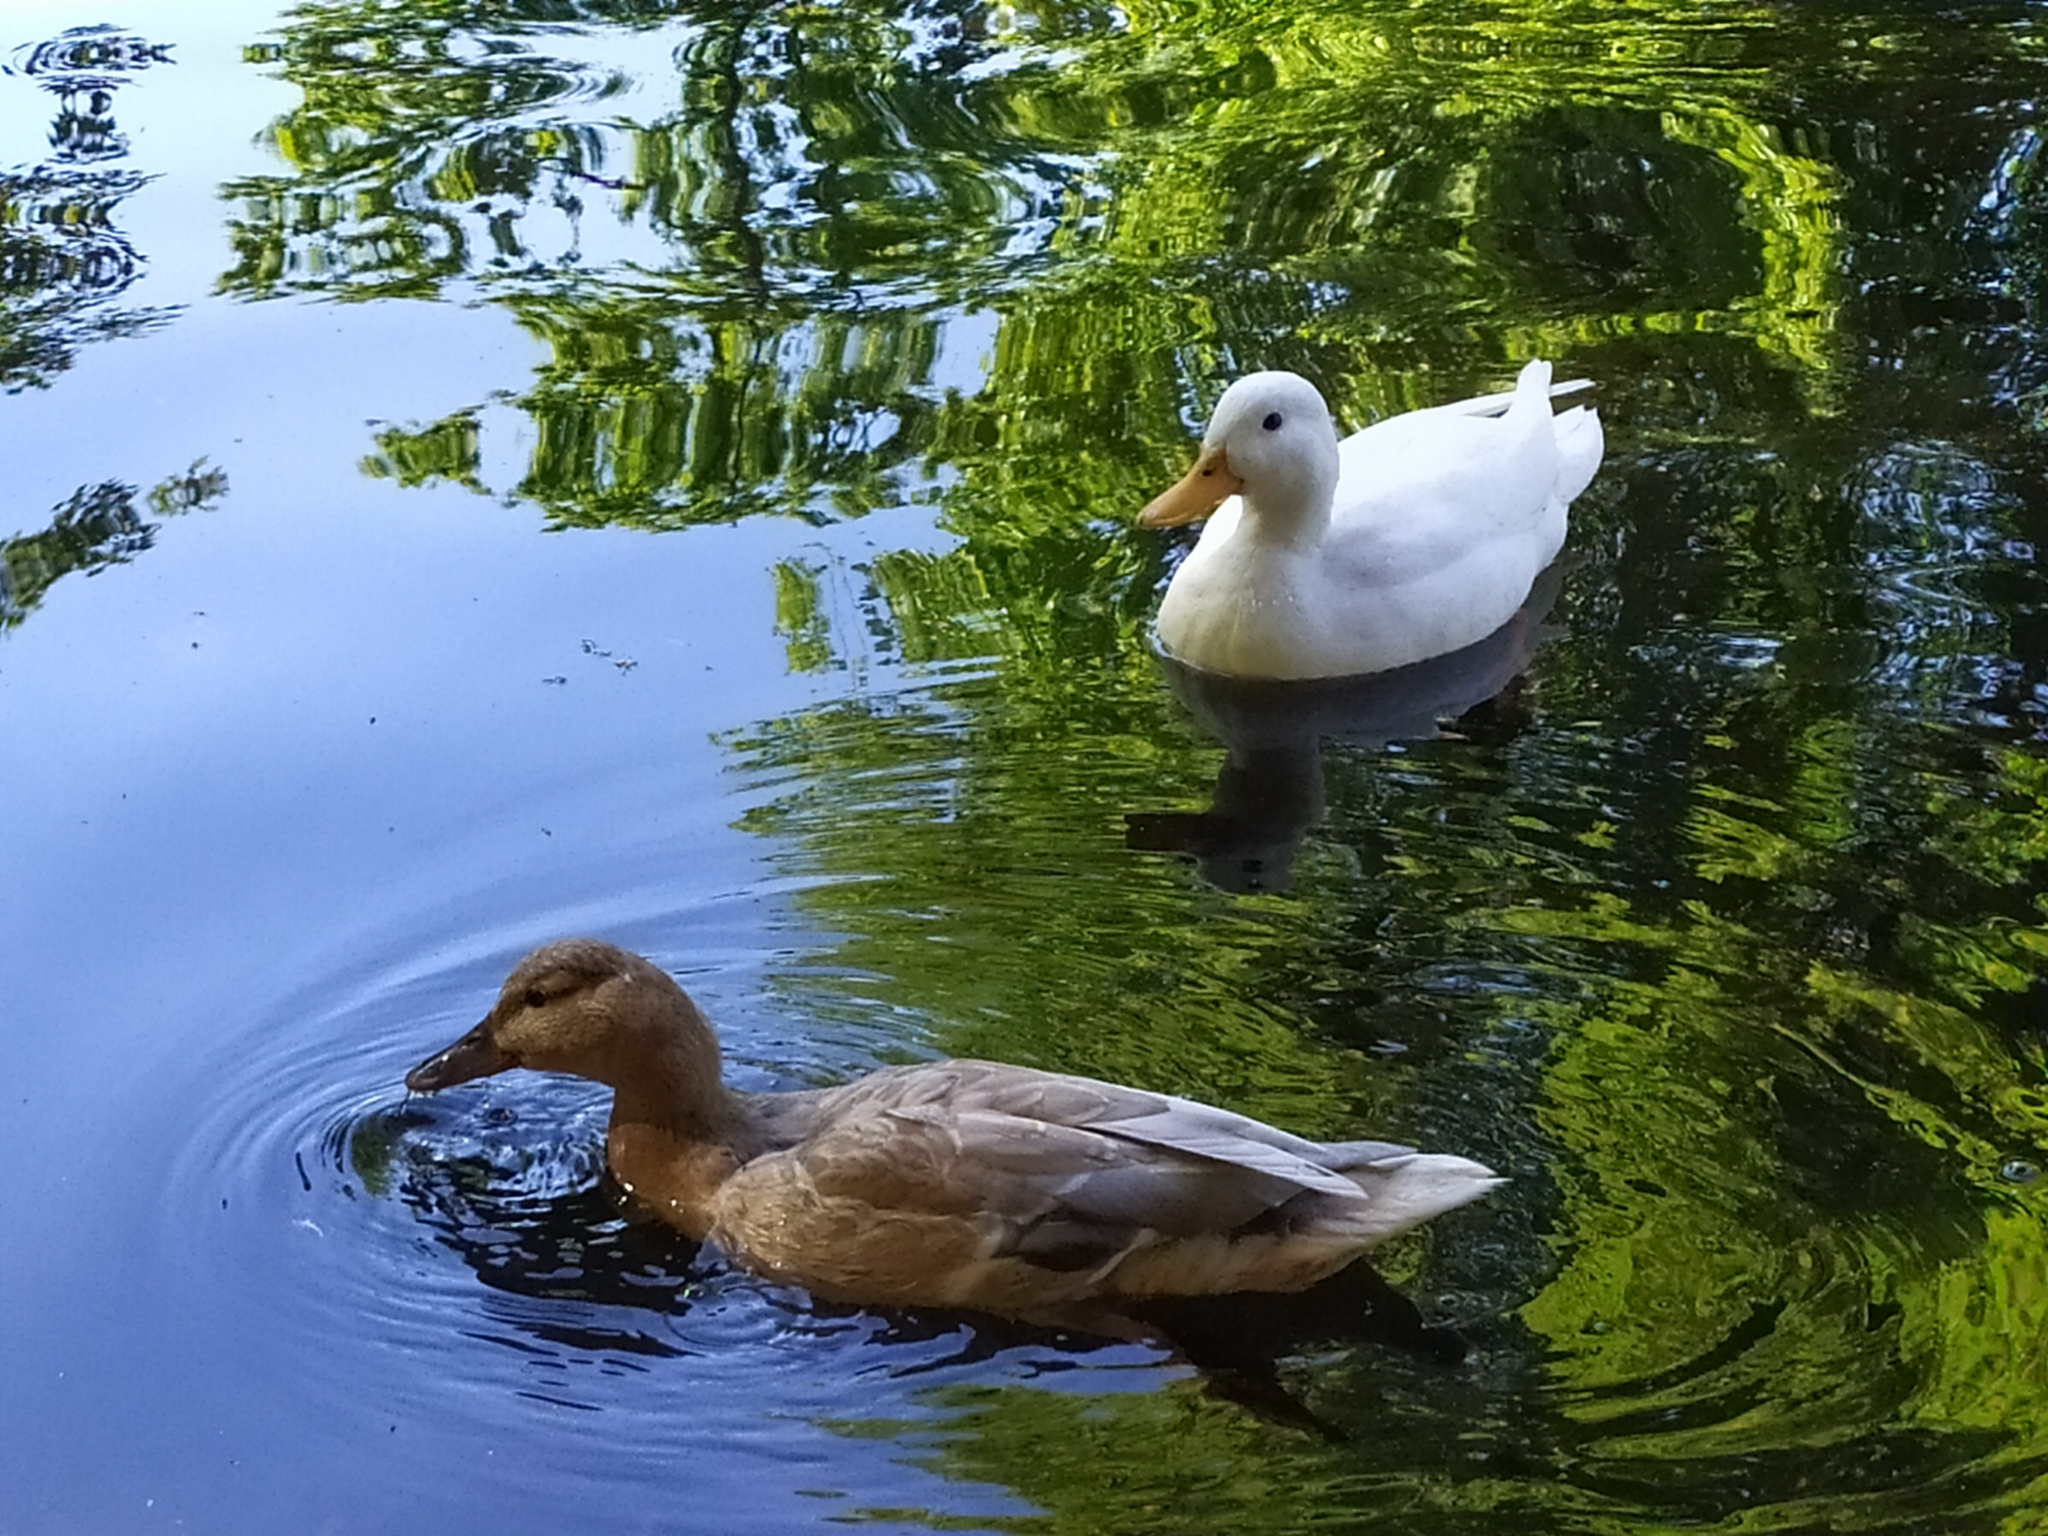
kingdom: Animalia
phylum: Chordata
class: Aves
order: Anseriformes
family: Anatidae
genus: Anas
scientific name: Anas platyrhynchos
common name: Mallard
